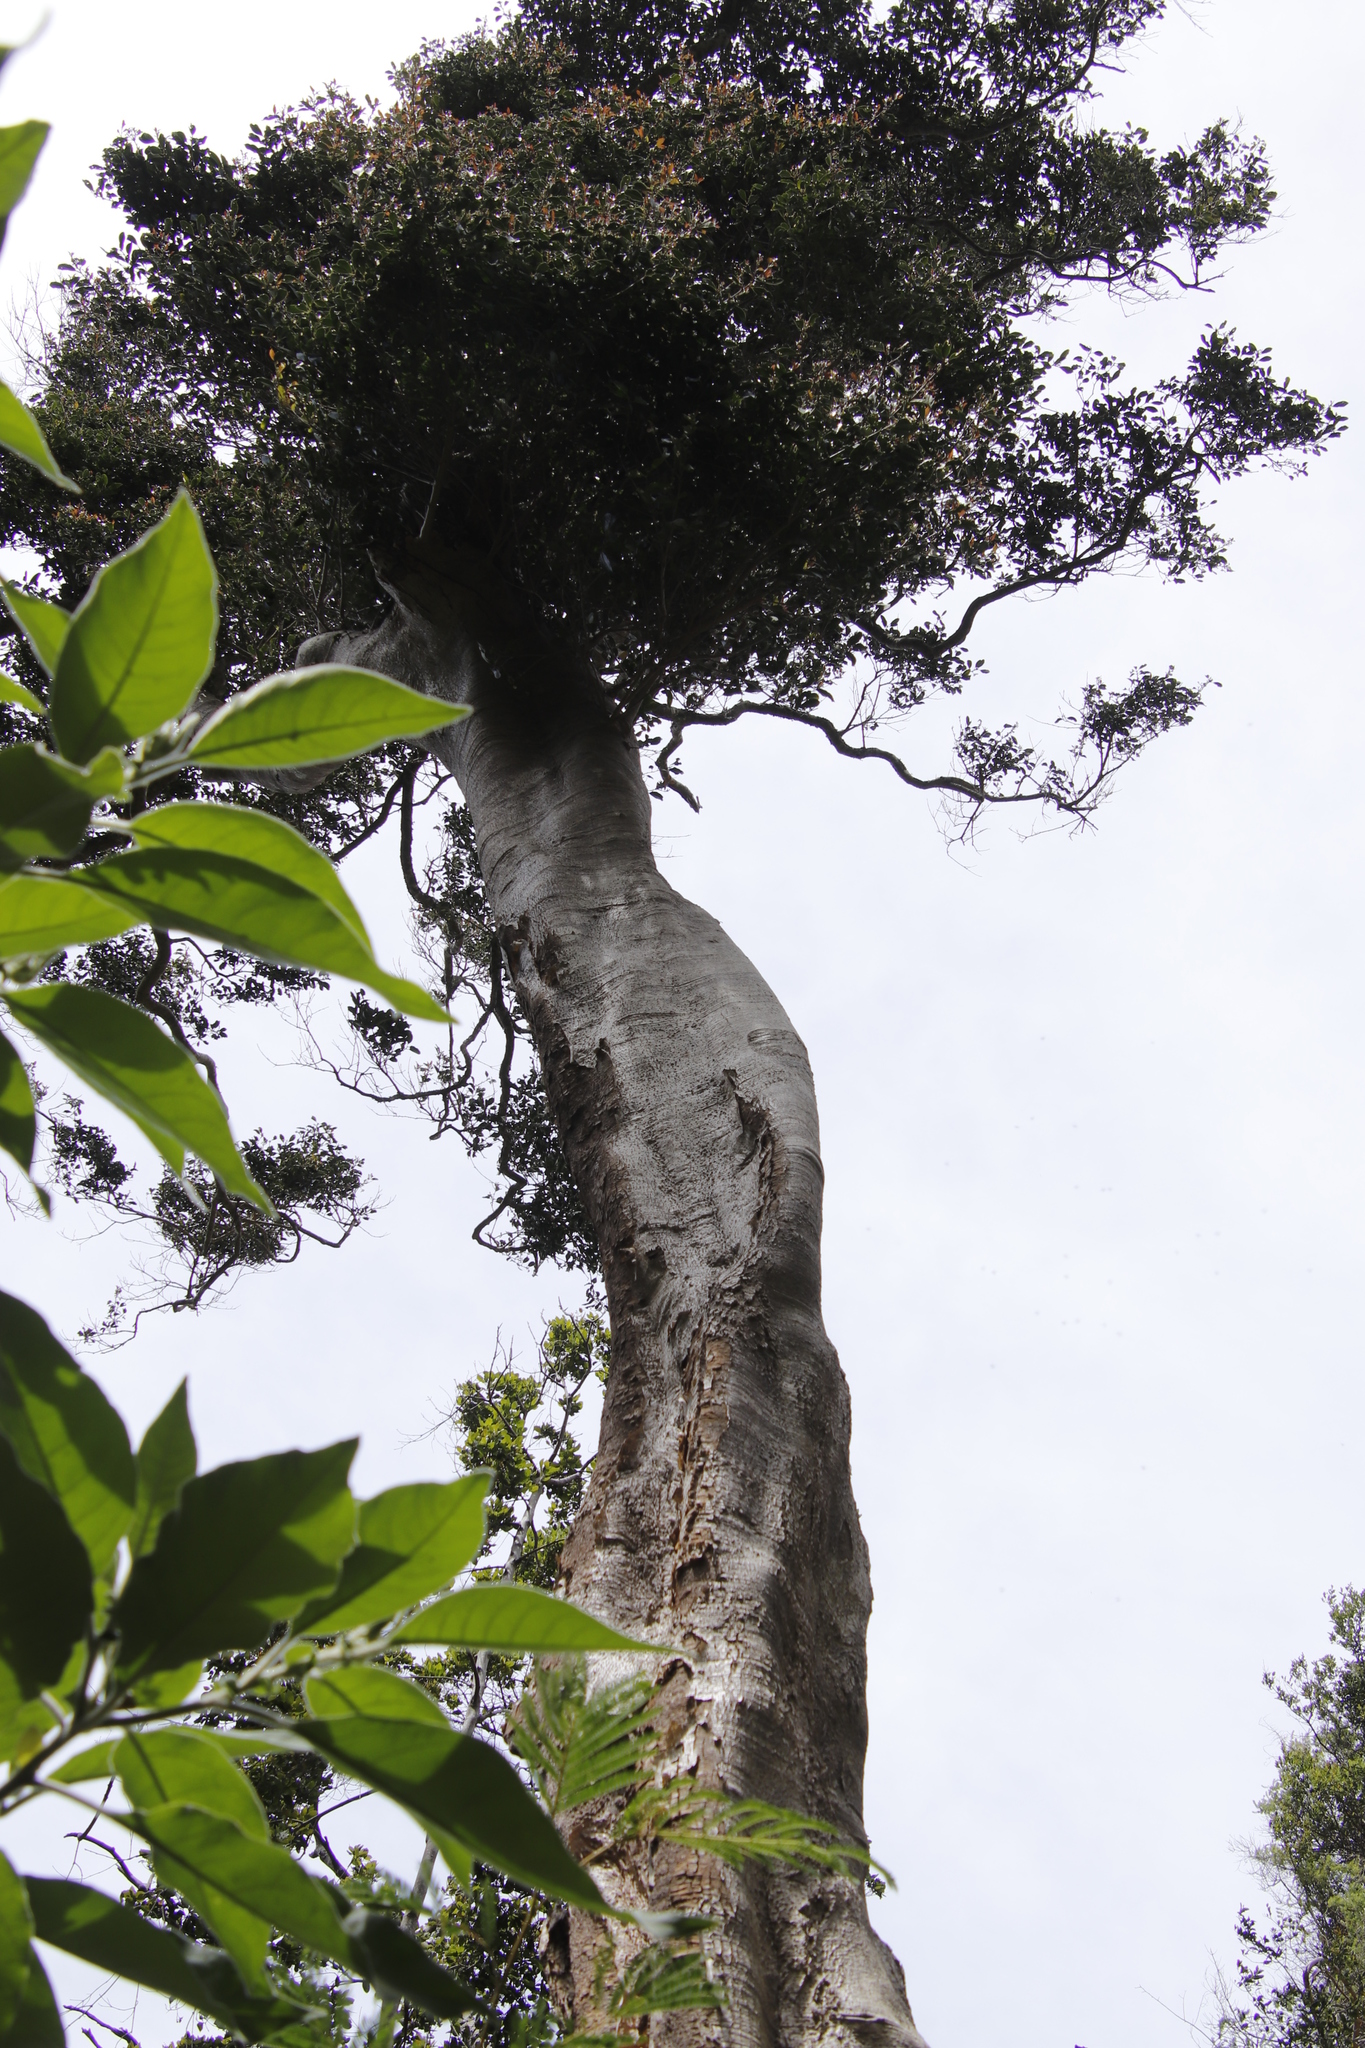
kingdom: Plantae
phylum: Tracheophyta
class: Magnoliopsida
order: Metteniusales
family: Metteniusaceae
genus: Apodytes
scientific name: Apodytes dimidiata
